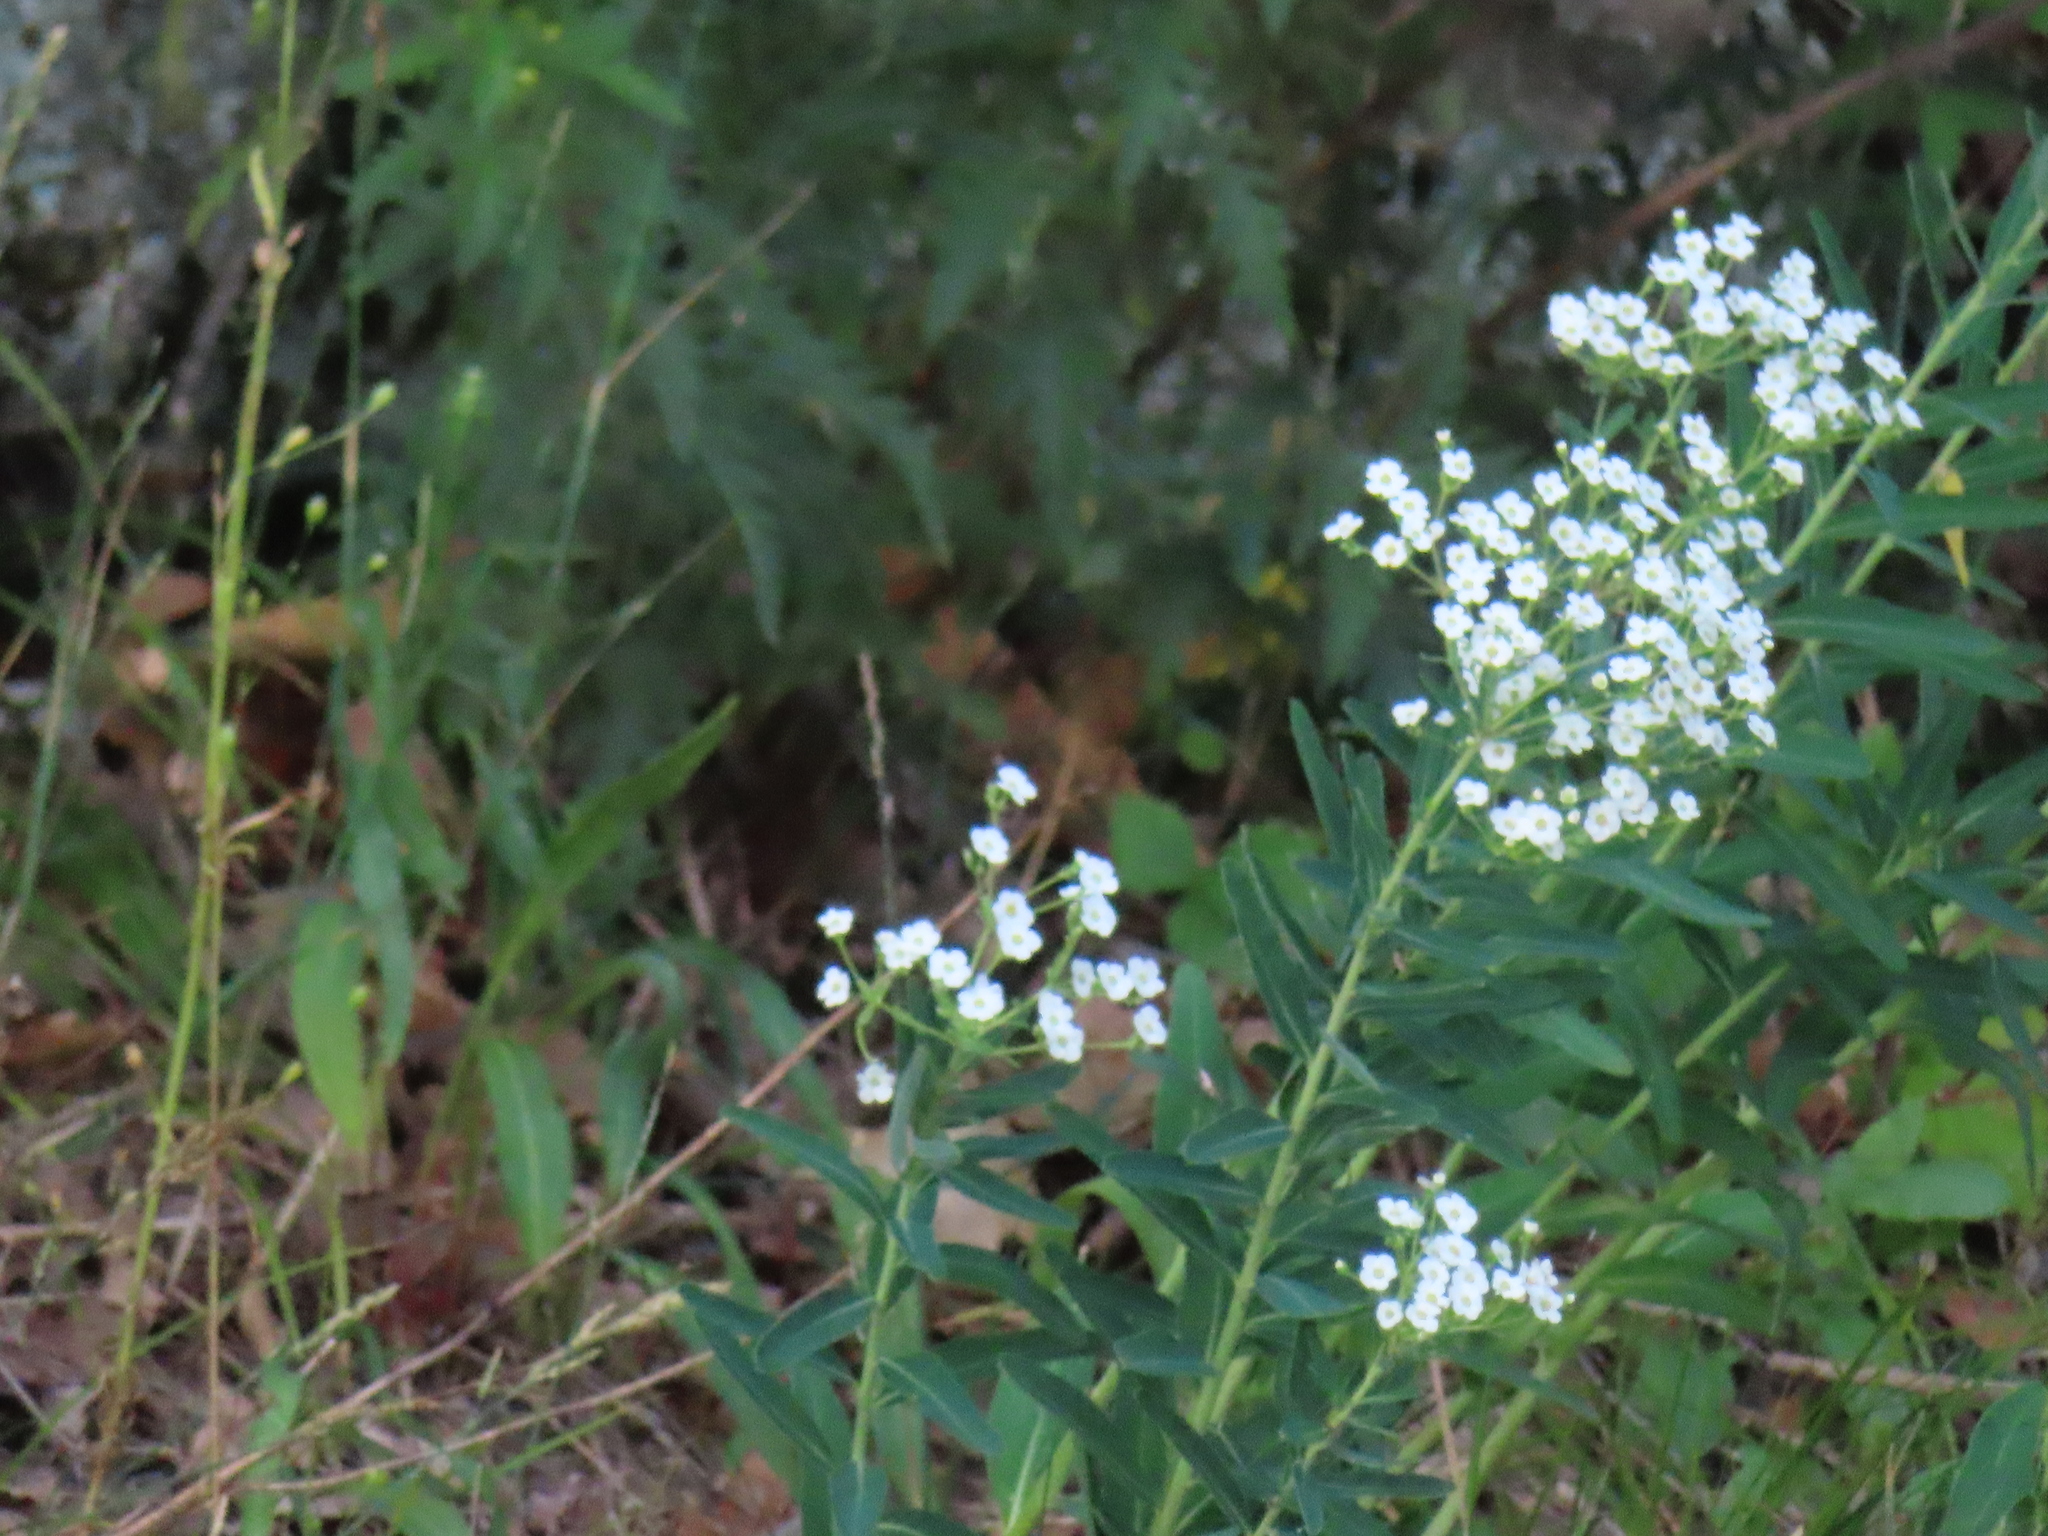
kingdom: Plantae
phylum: Tracheophyta
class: Magnoliopsida
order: Malpighiales
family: Euphorbiaceae
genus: Euphorbia
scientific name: Euphorbia corollata
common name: Flowering spurge
